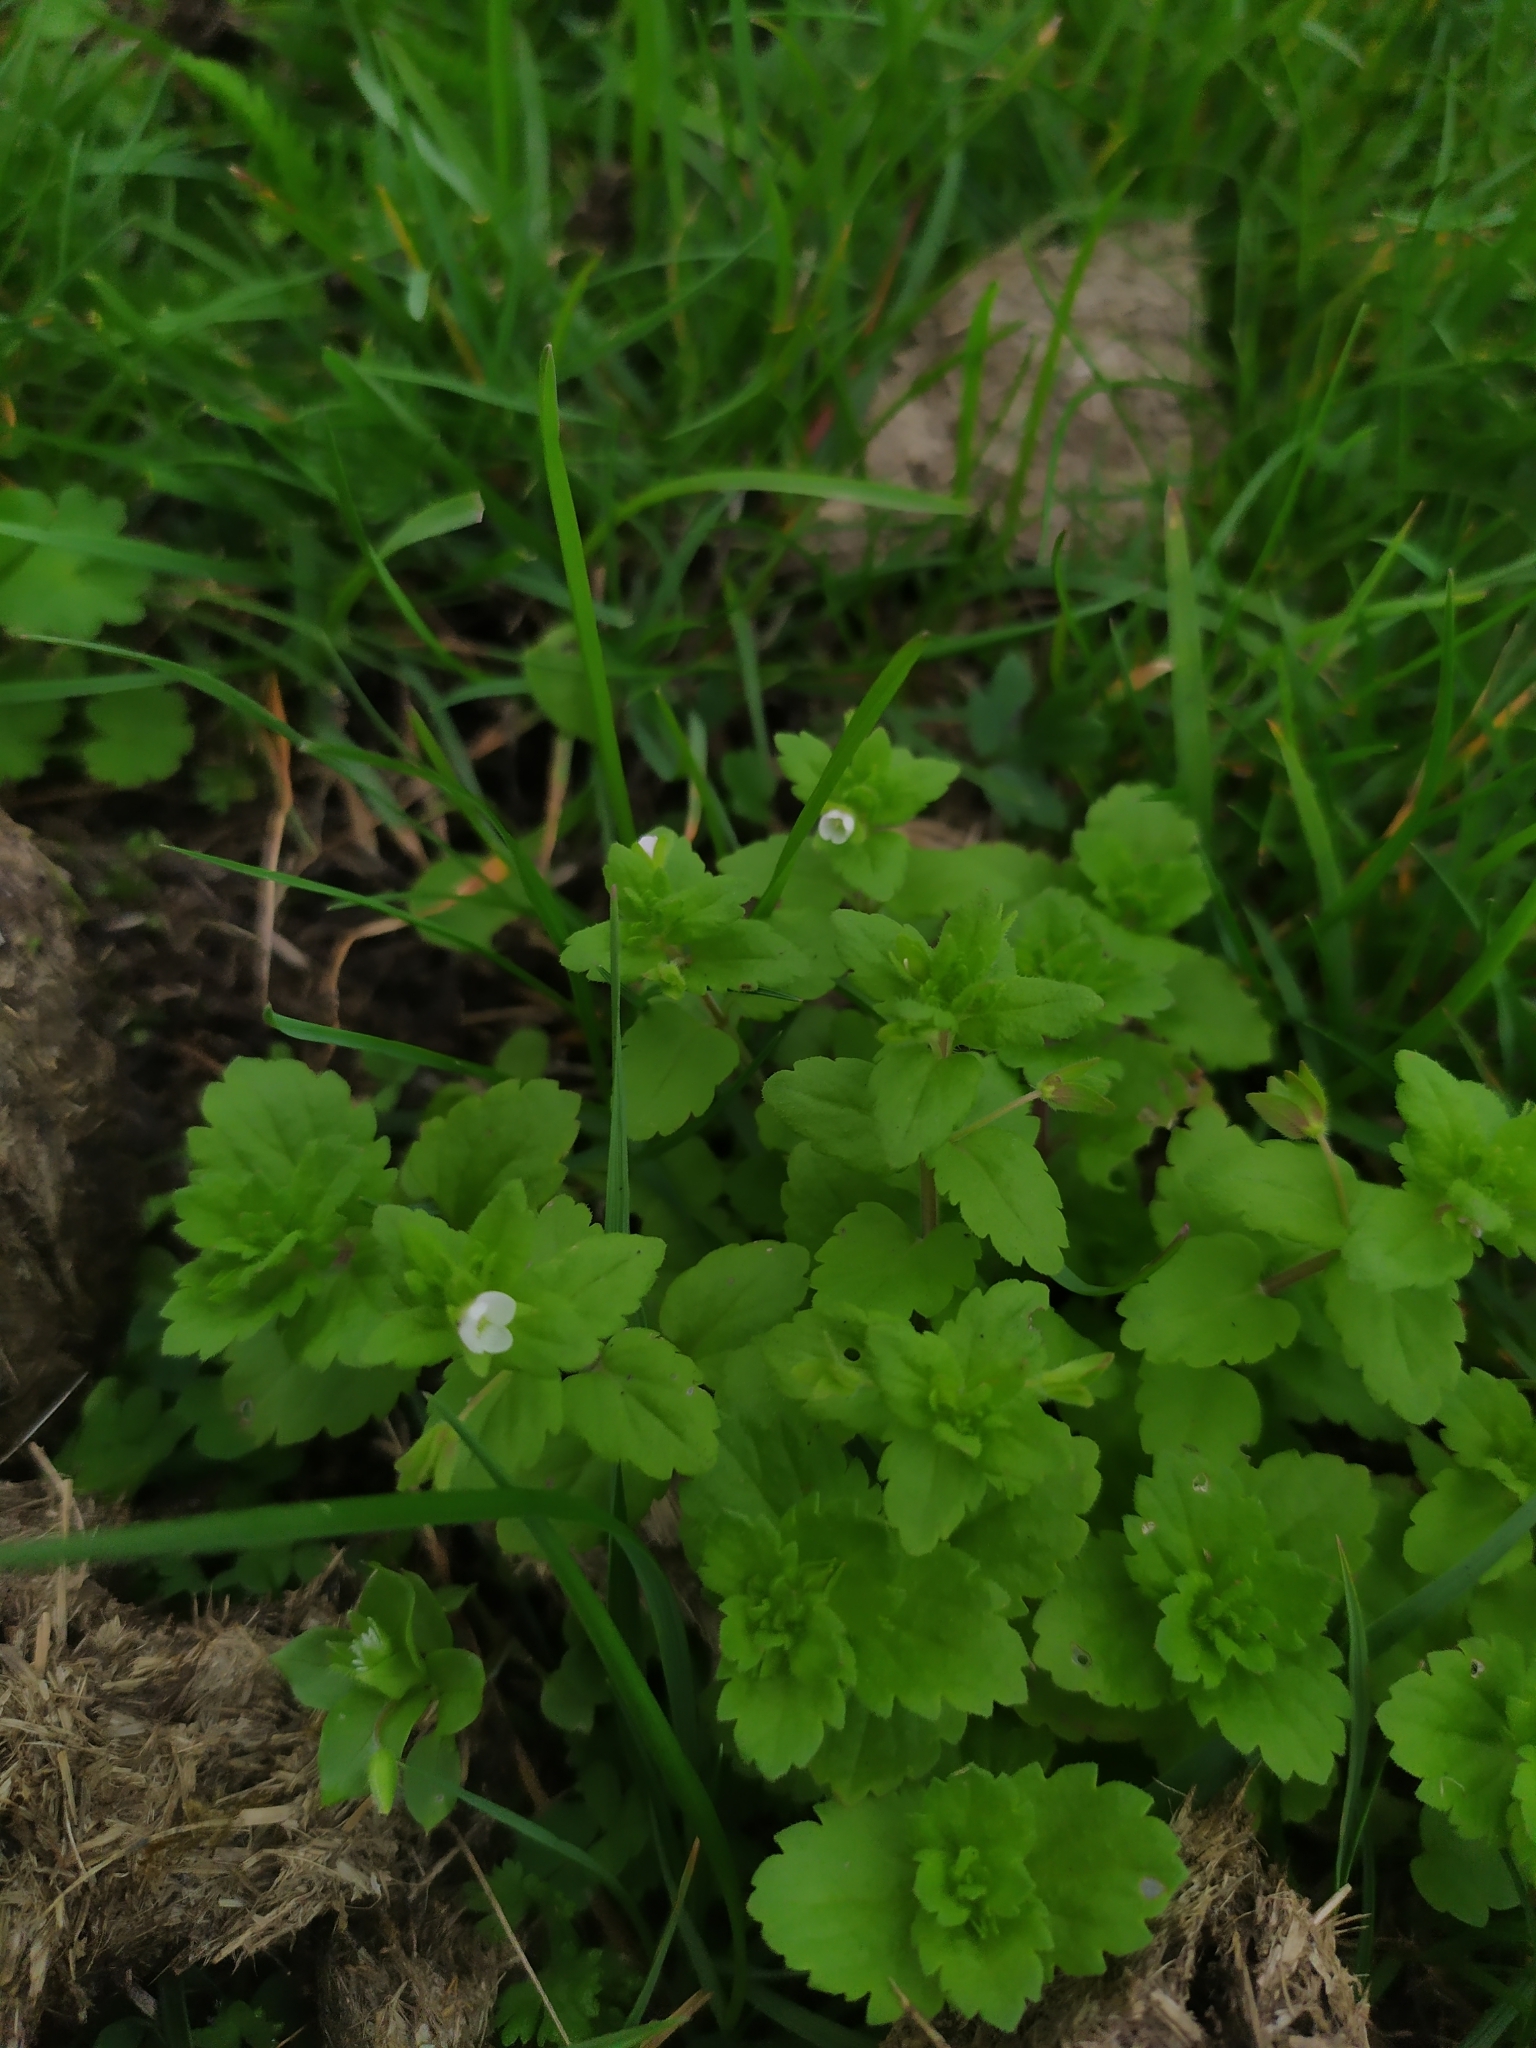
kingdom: Plantae
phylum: Tracheophyta
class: Magnoliopsida
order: Lamiales
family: Plantaginaceae
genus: Veronica
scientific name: Veronica agrestis
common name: Green field-speedwell
